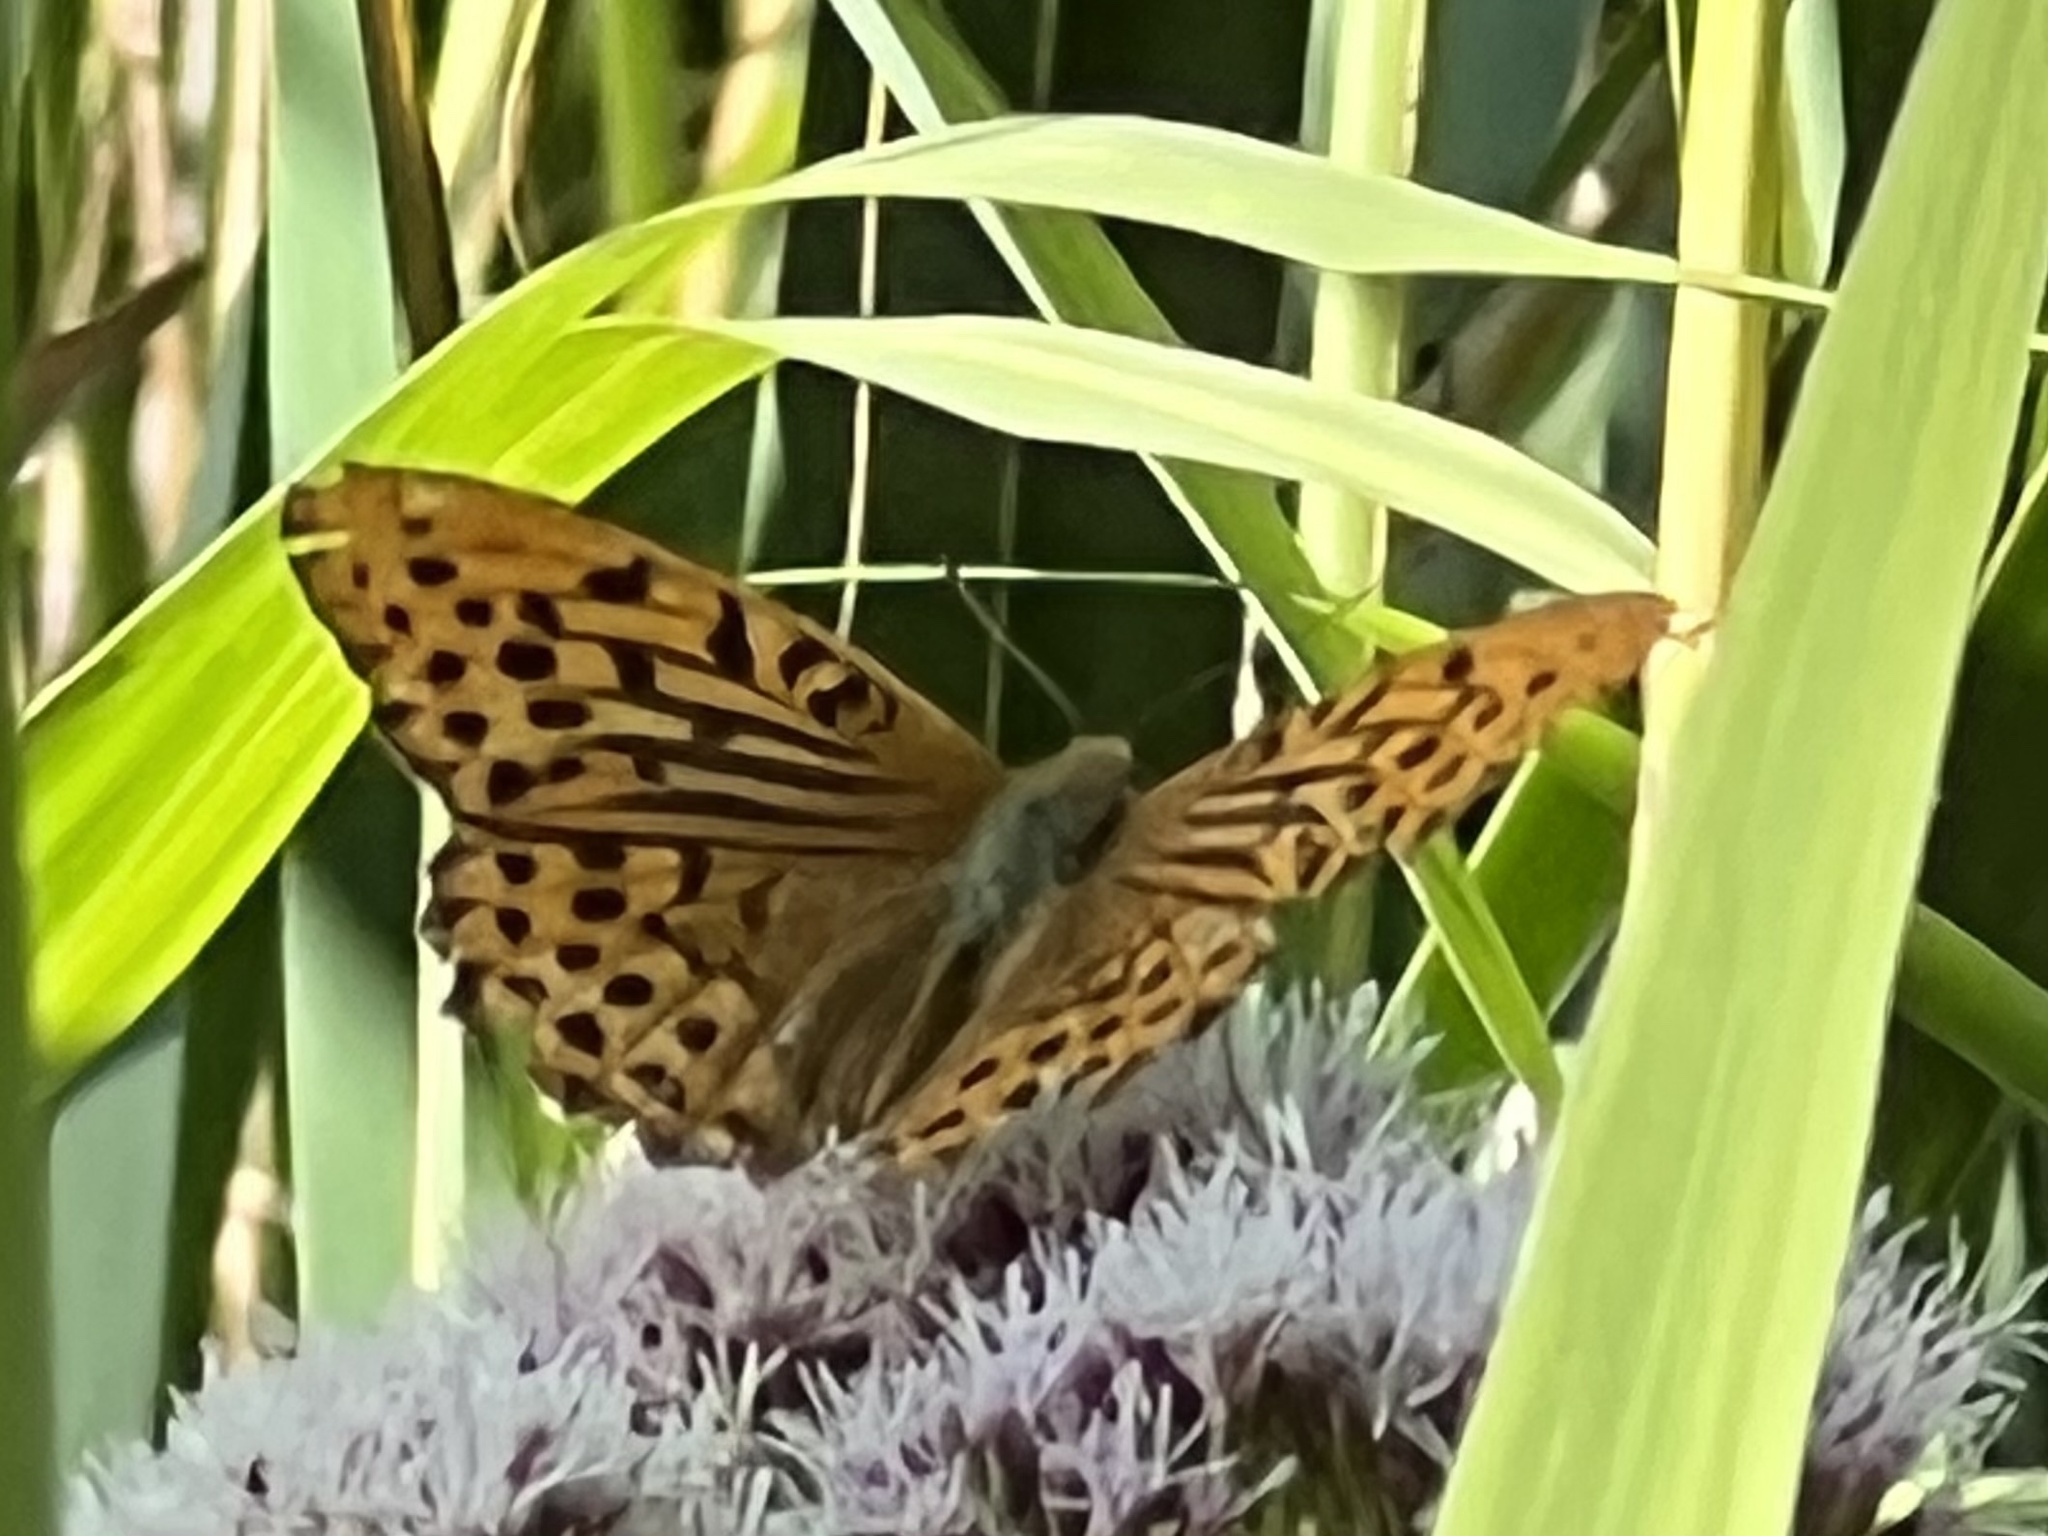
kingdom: Animalia
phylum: Arthropoda
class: Insecta
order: Lepidoptera
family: Nymphalidae
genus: Argynnis
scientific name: Argynnis paphia
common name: Silver-washed fritillary
